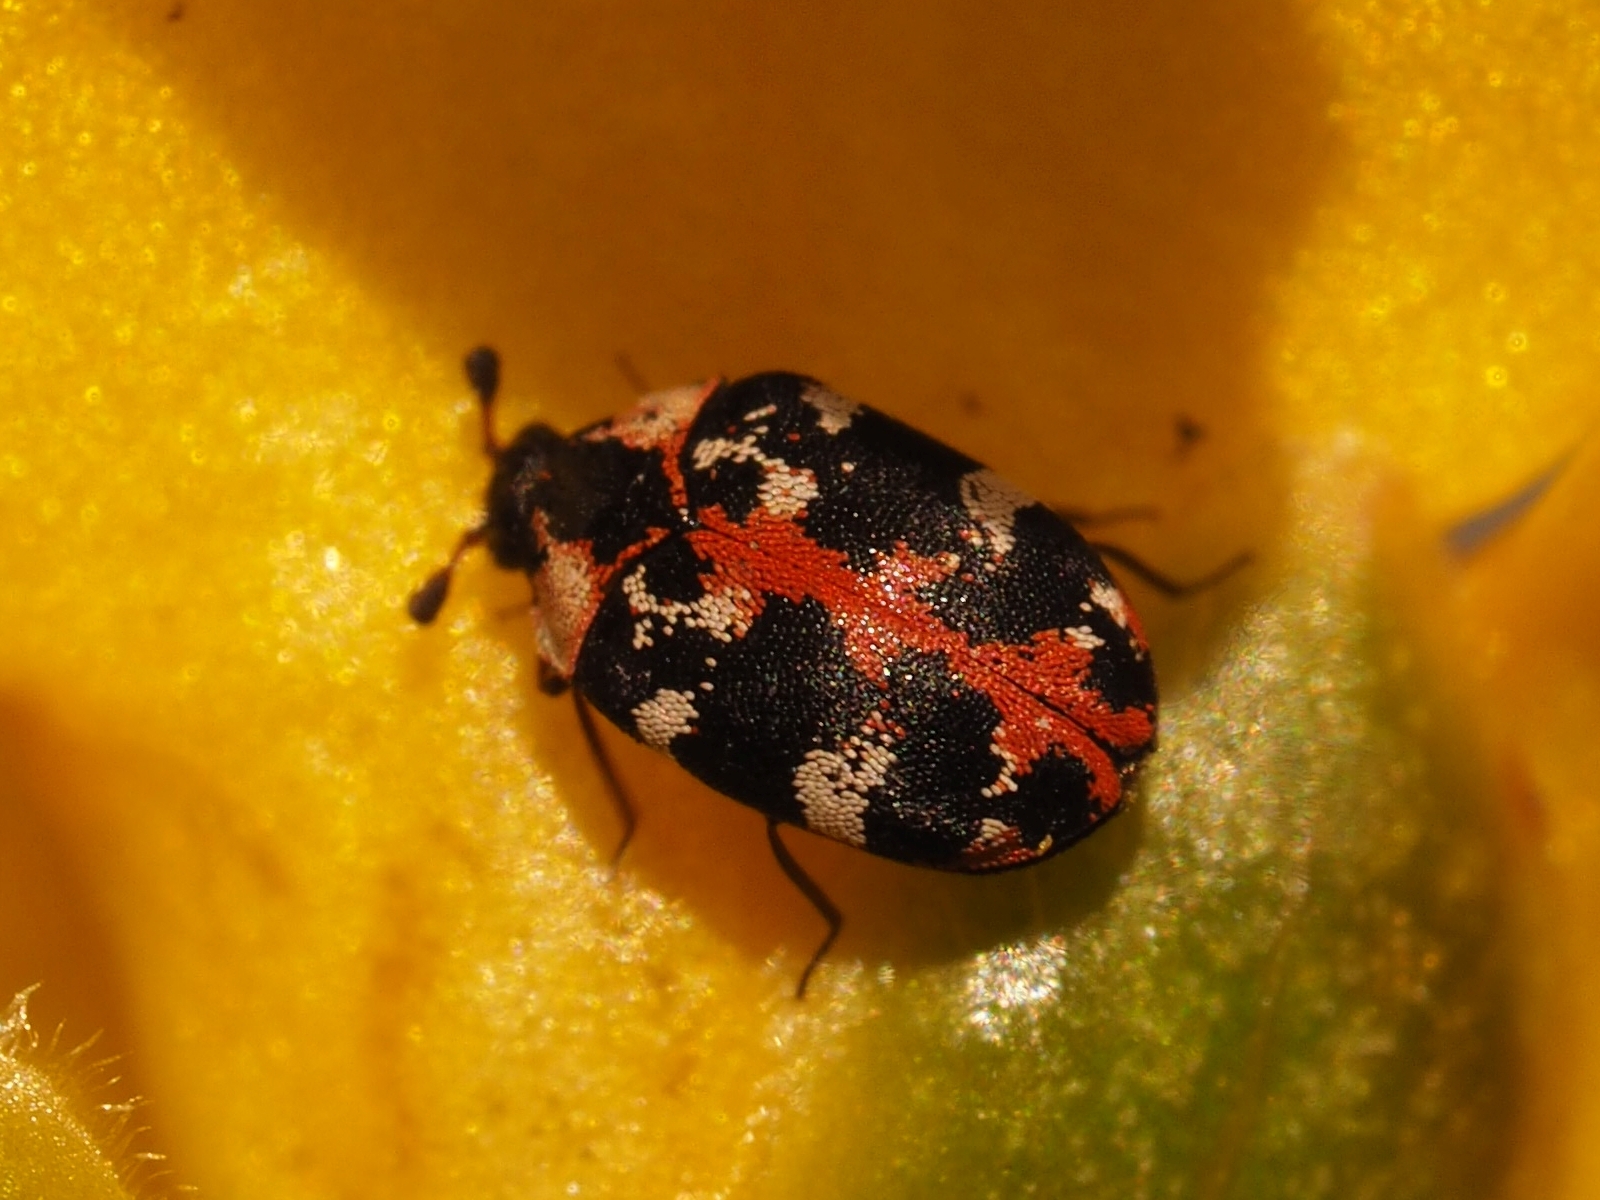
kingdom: Animalia
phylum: Arthropoda
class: Insecta
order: Coleoptera
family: Dermestidae
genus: Anthrenus
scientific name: Anthrenus scrophulariae
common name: Buffalo carpet beetle
